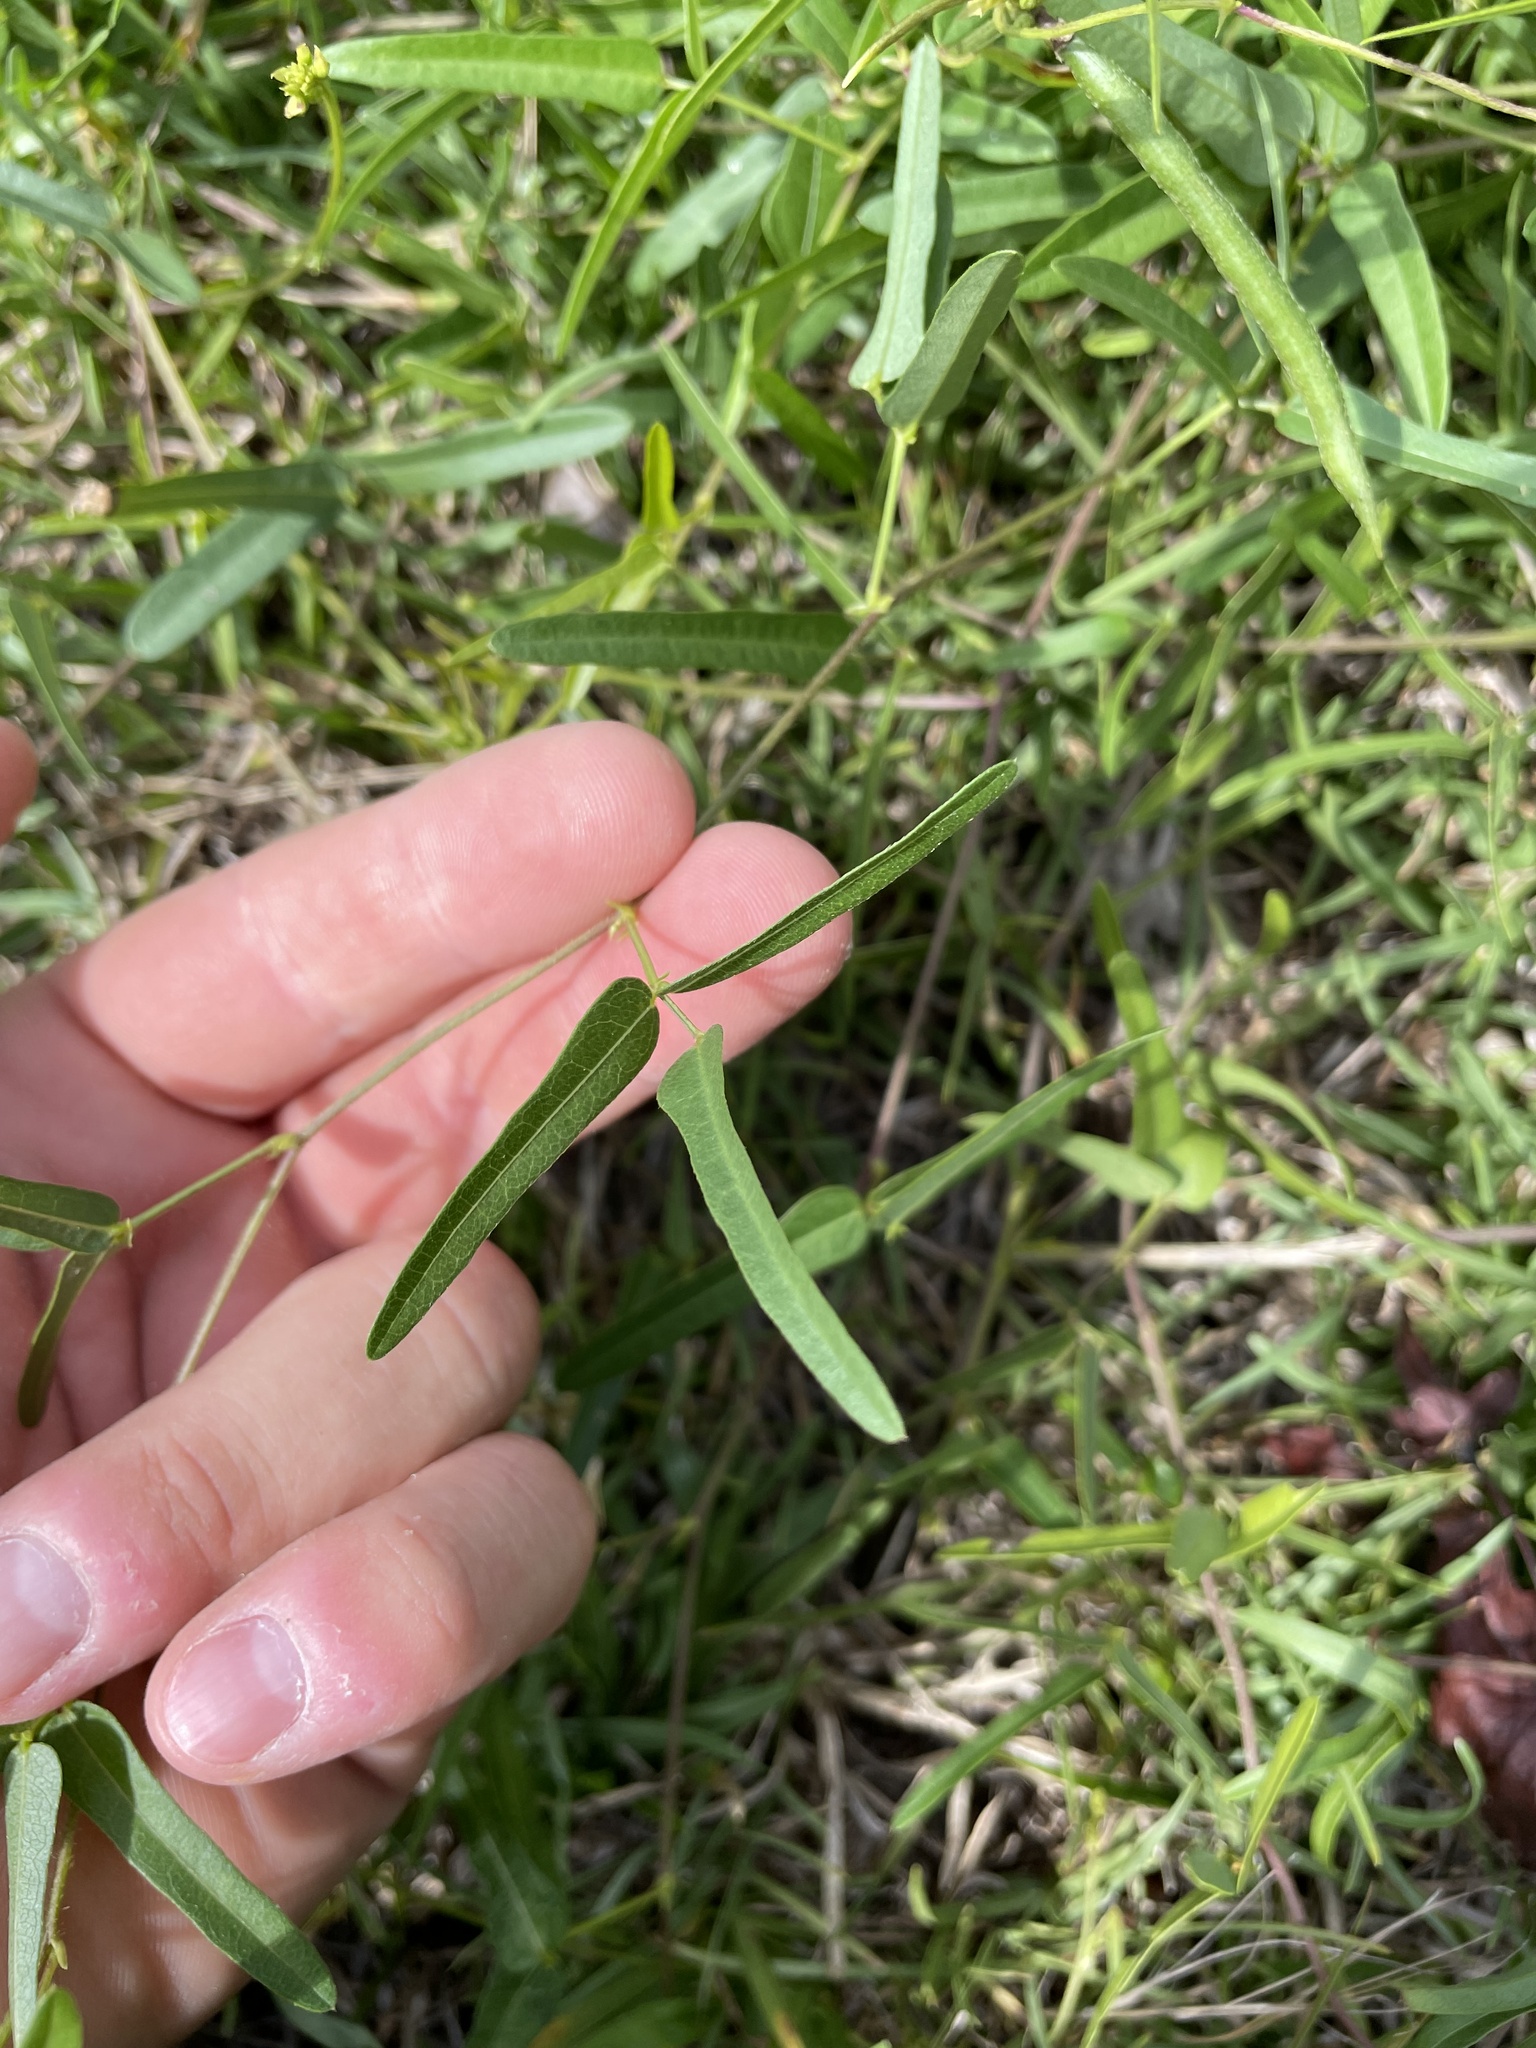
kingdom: Plantae
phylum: Tracheophyta
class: Magnoliopsida
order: Fabales
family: Fabaceae
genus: Strophostyles
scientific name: Strophostyles umbellata
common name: Perennial wild bean
